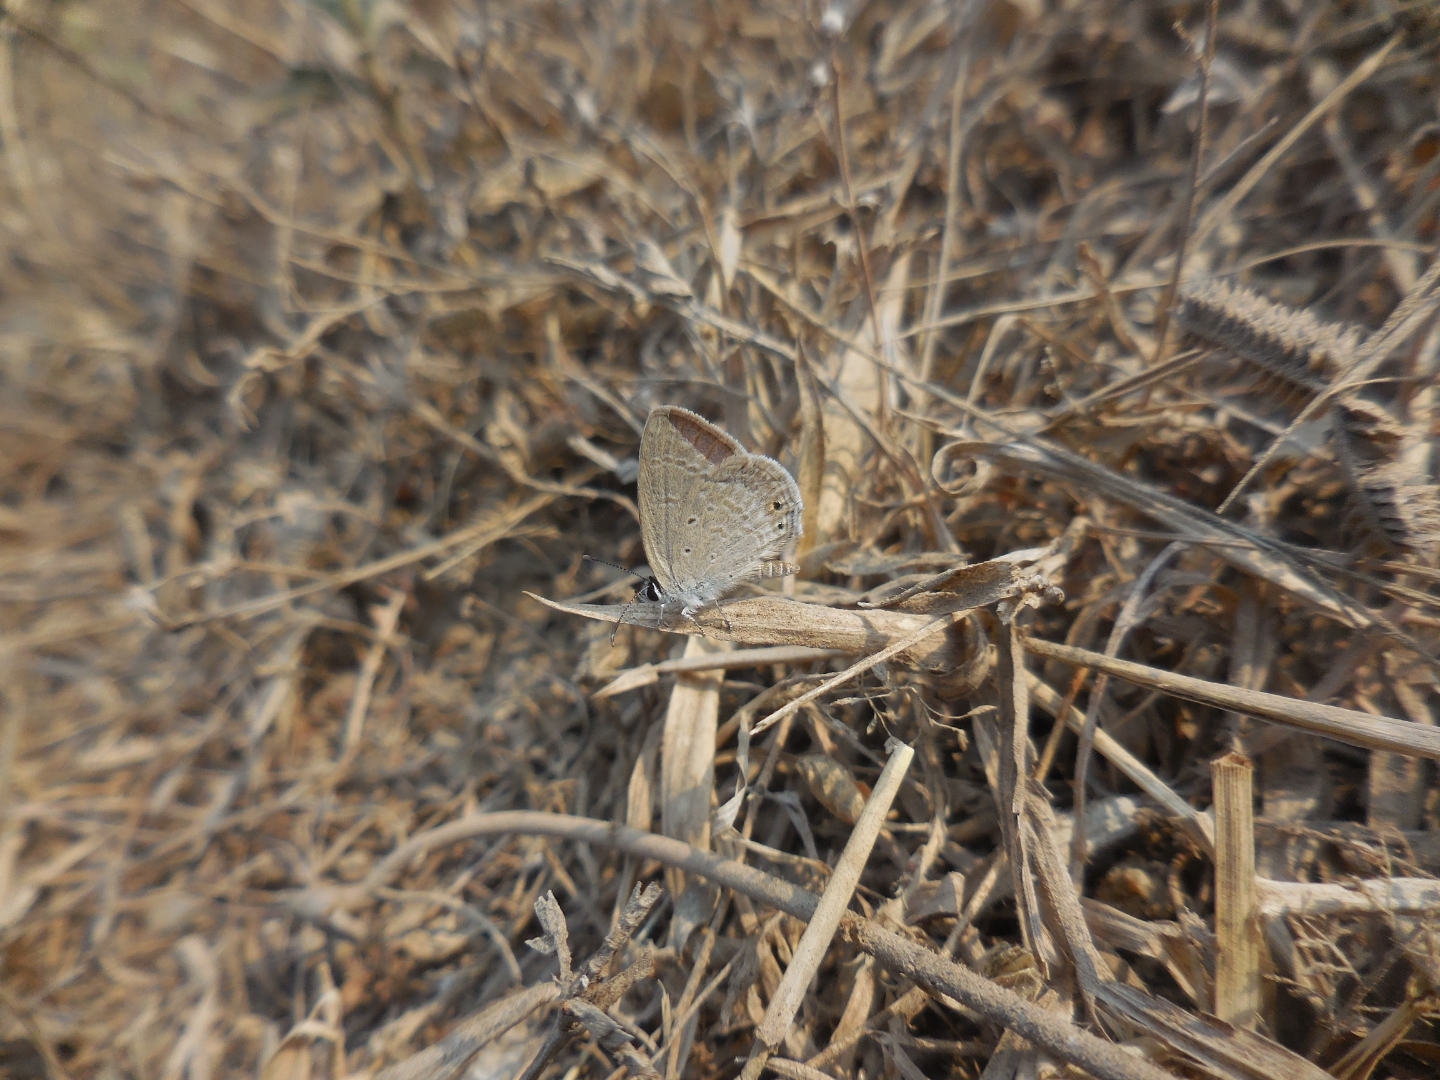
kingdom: Animalia
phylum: Arthropoda
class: Insecta
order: Lepidoptera
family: Lycaenidae
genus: Euchrysops
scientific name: Euchrysops cnejus
